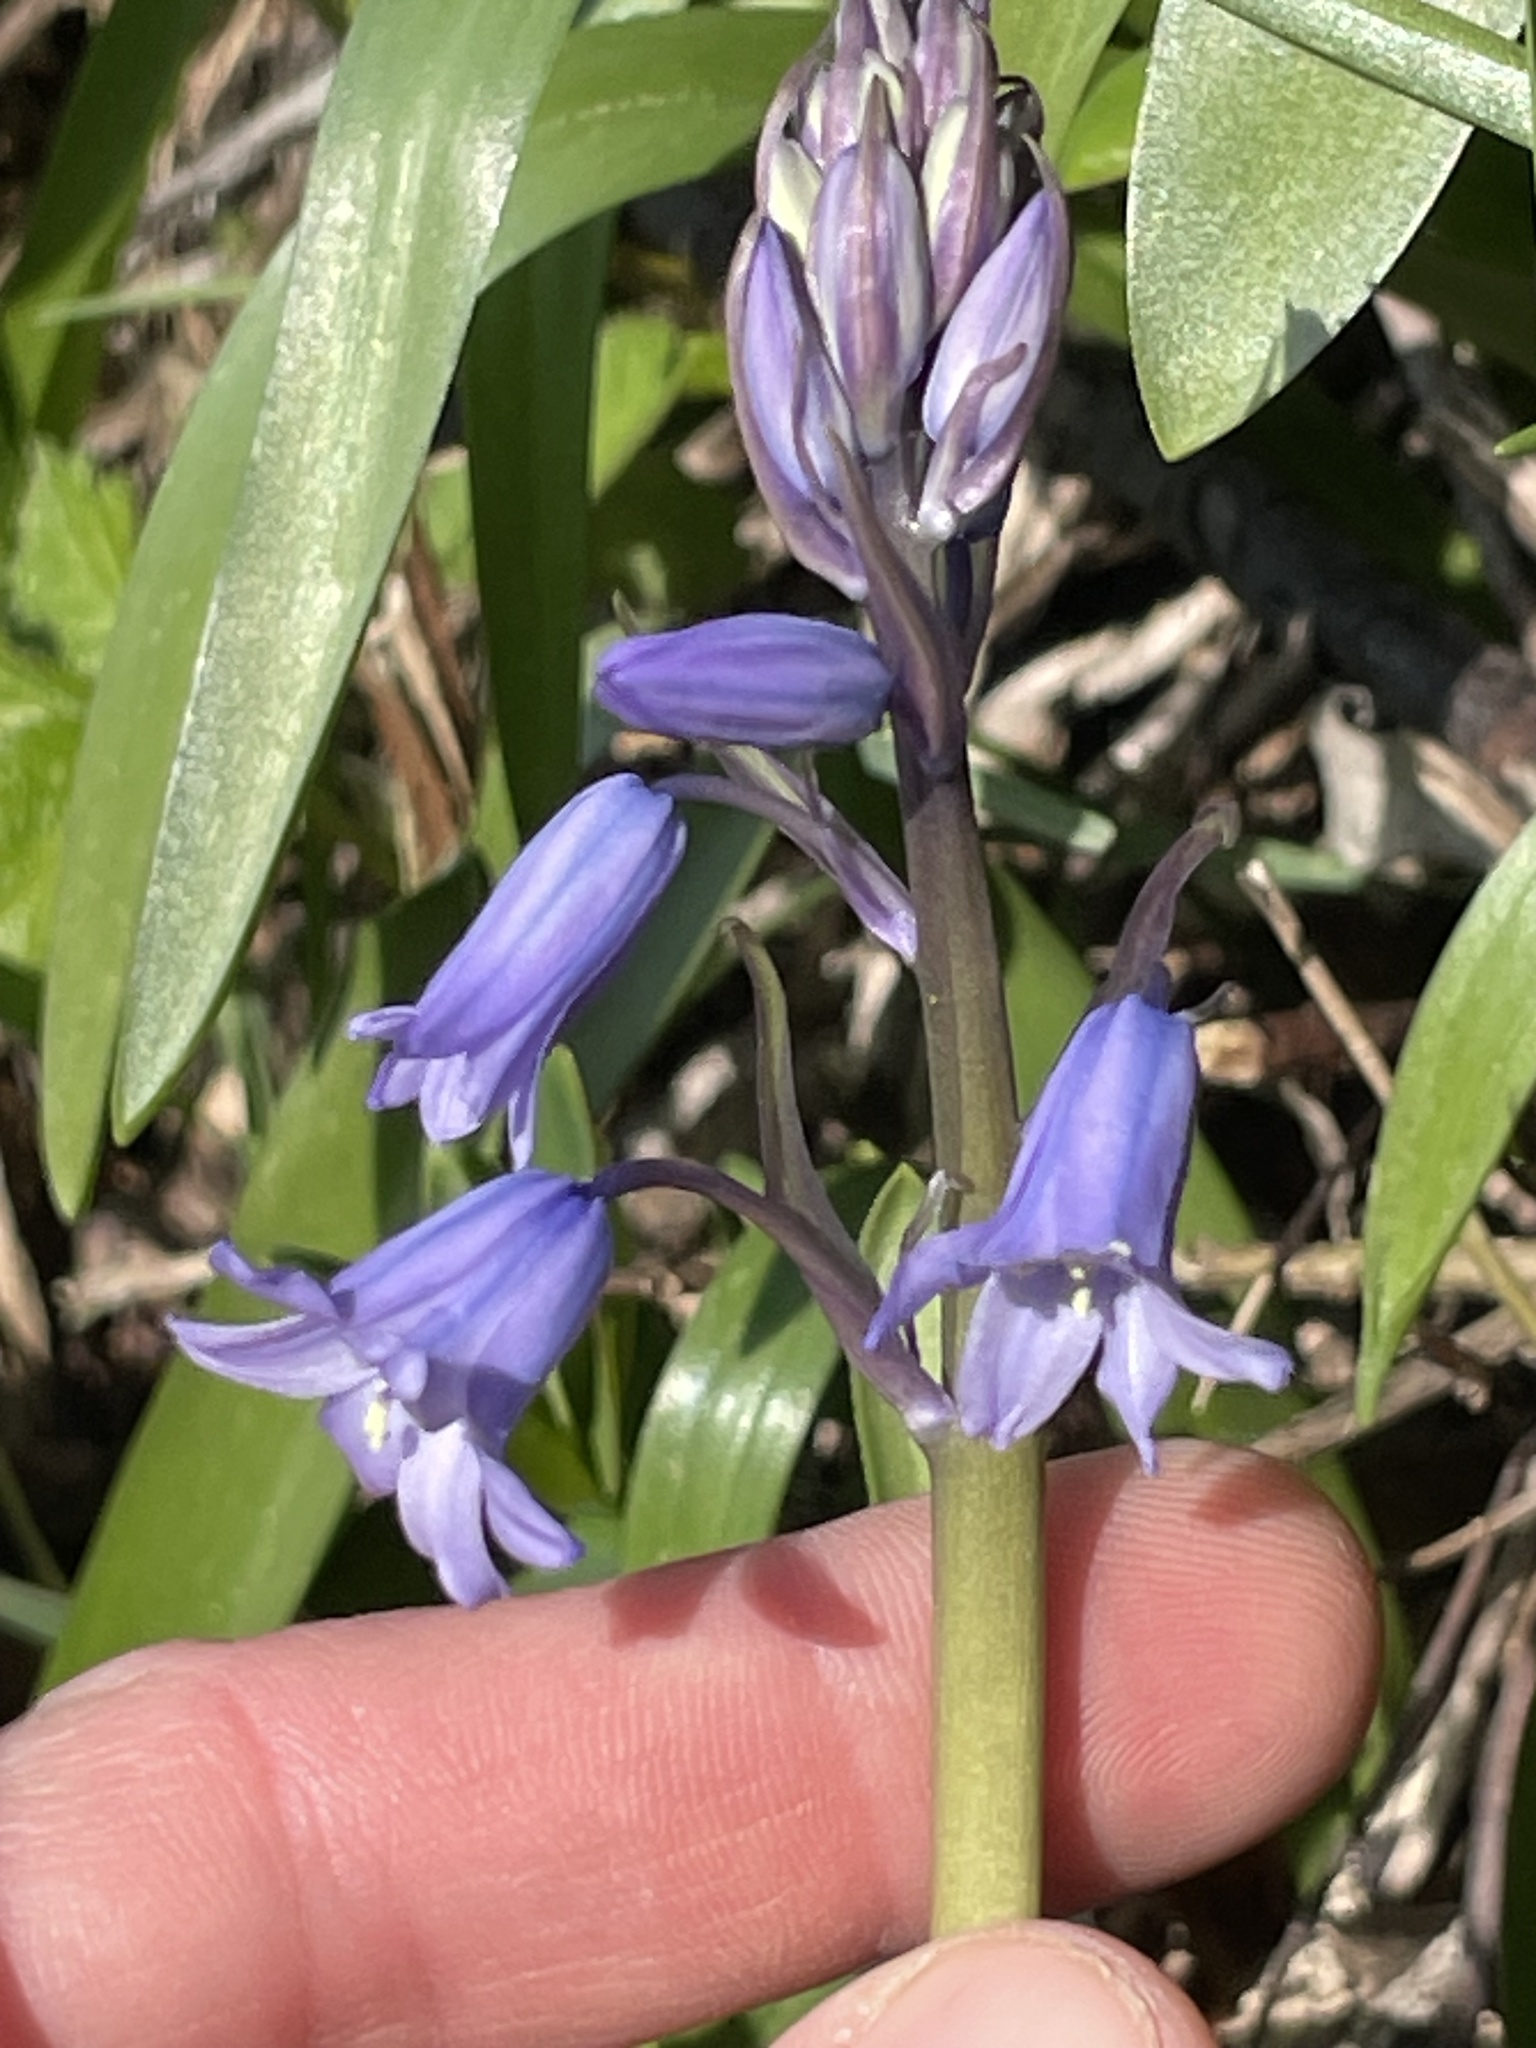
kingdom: Plantae
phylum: Tracheophyta
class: Liliopsida
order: Asparagales
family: Asparagaceae
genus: Hyacinthoides
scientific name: Hyacinthoides massartiana
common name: Hyacinthoides
